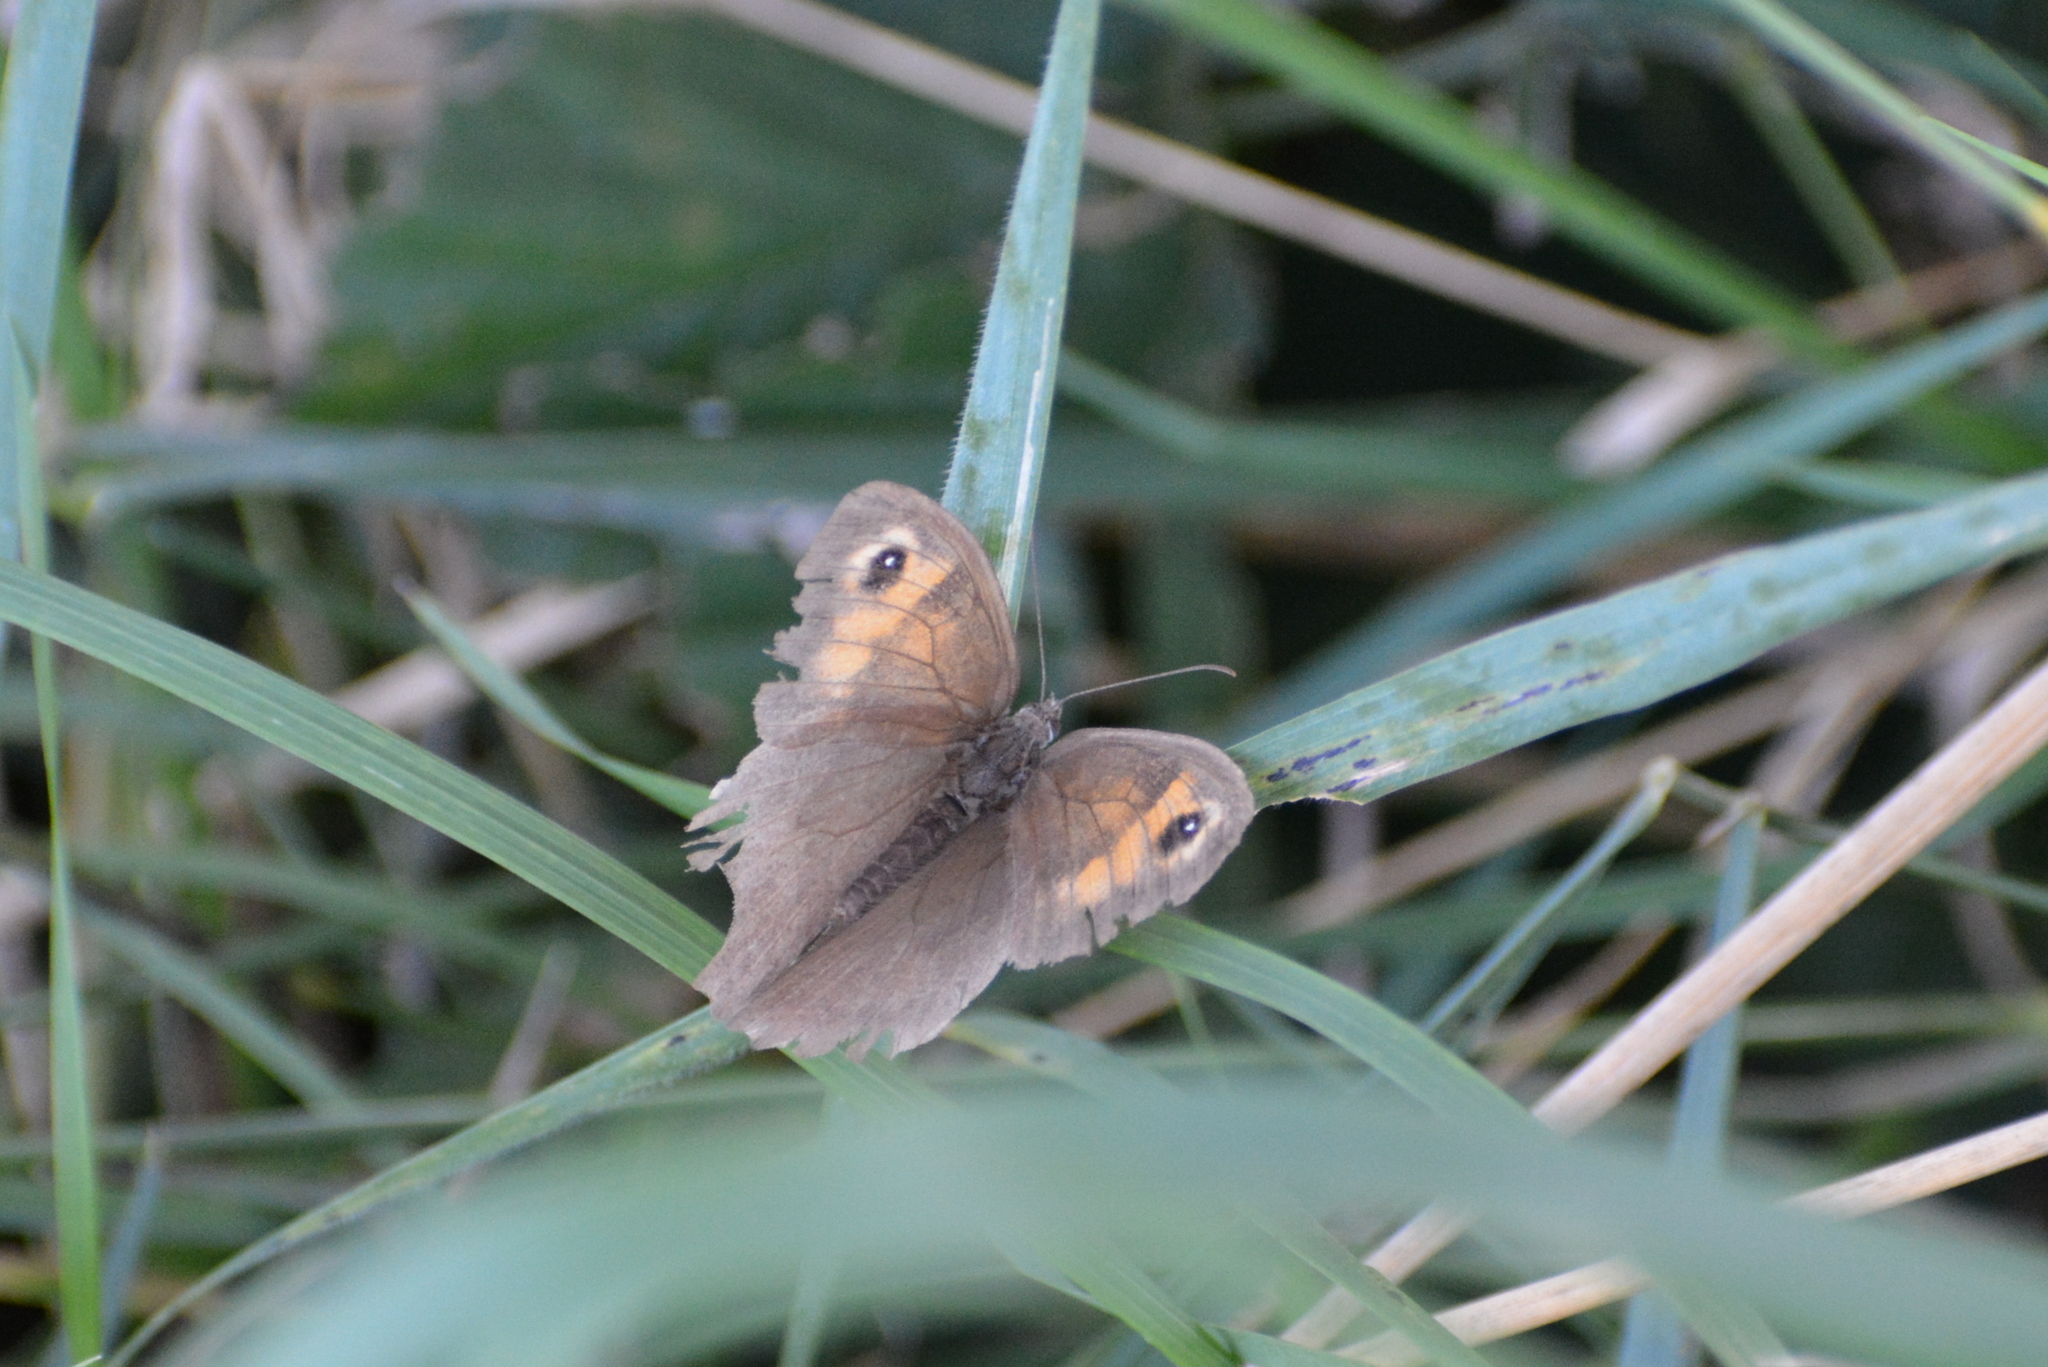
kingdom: Animalia
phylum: Arthropoda
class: Insecta
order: Lepidoptera
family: Nymphalidae
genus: Maniola
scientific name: Maniola jurtina
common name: Meadow brown
